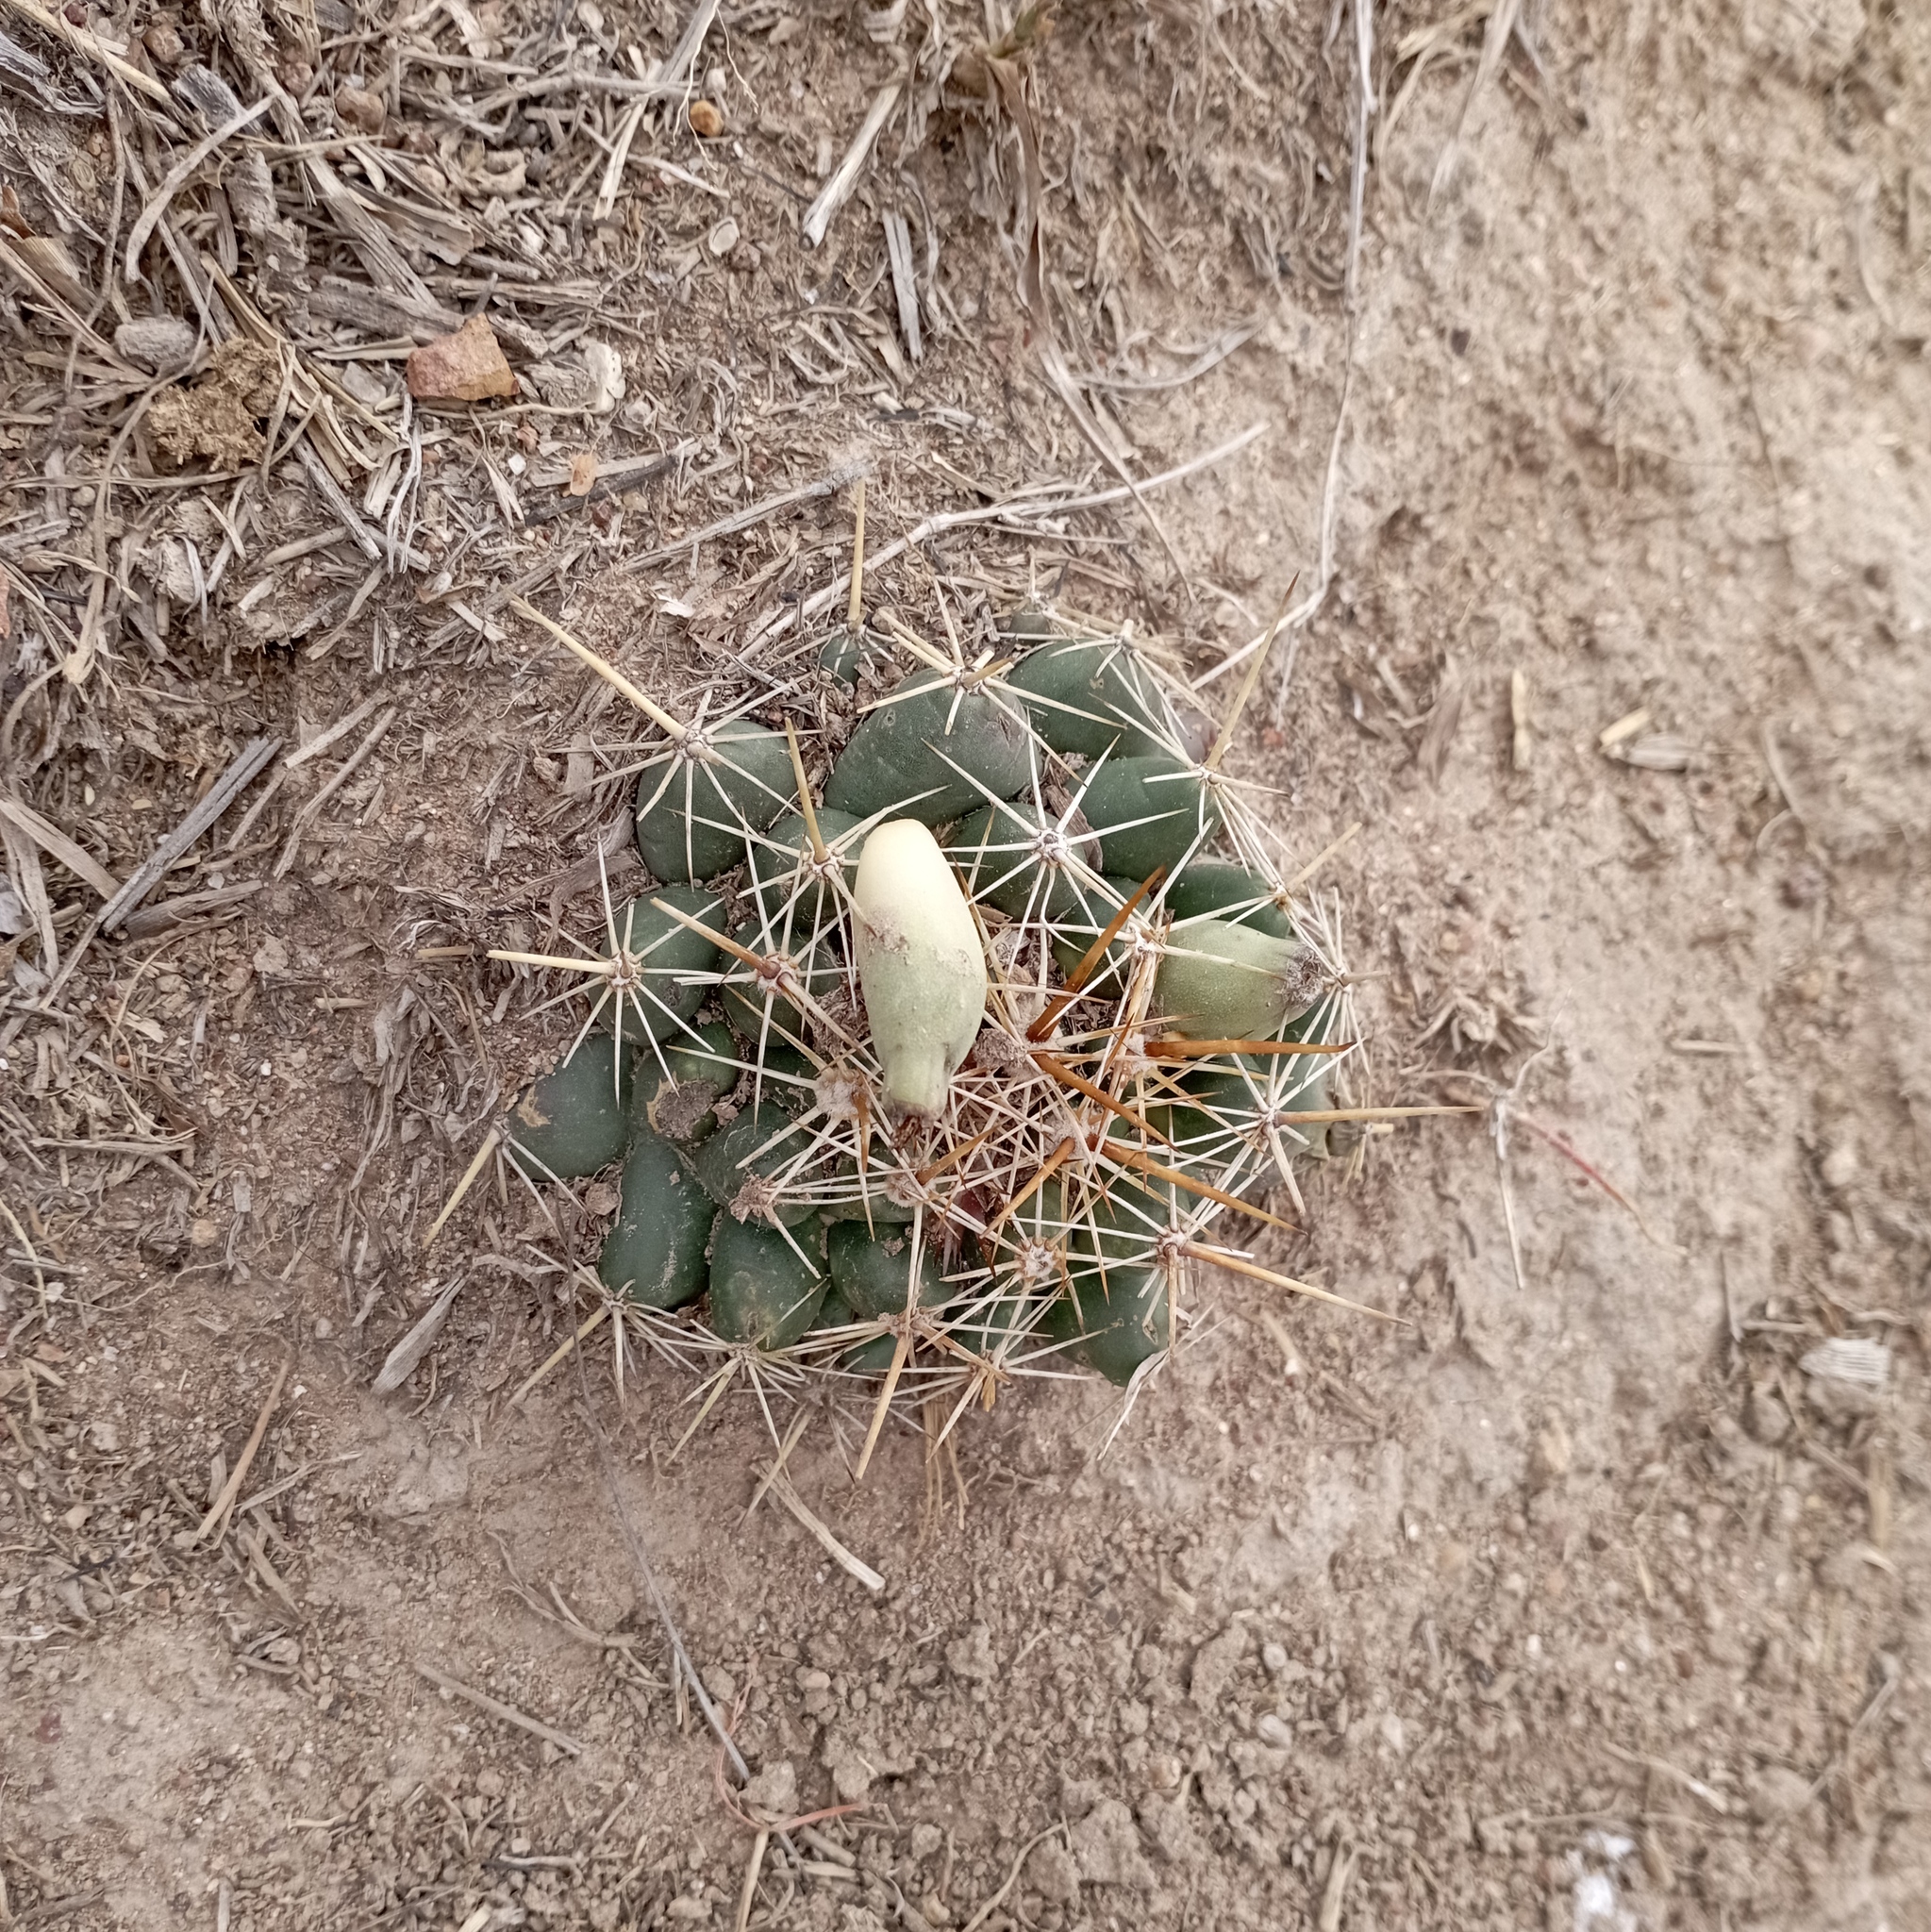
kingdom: Plantae
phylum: Tracheophyta
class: Magnoliopsida
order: Caryophyllales
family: Cactaceae
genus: Coryphantha
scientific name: Coryphantha ottonis
